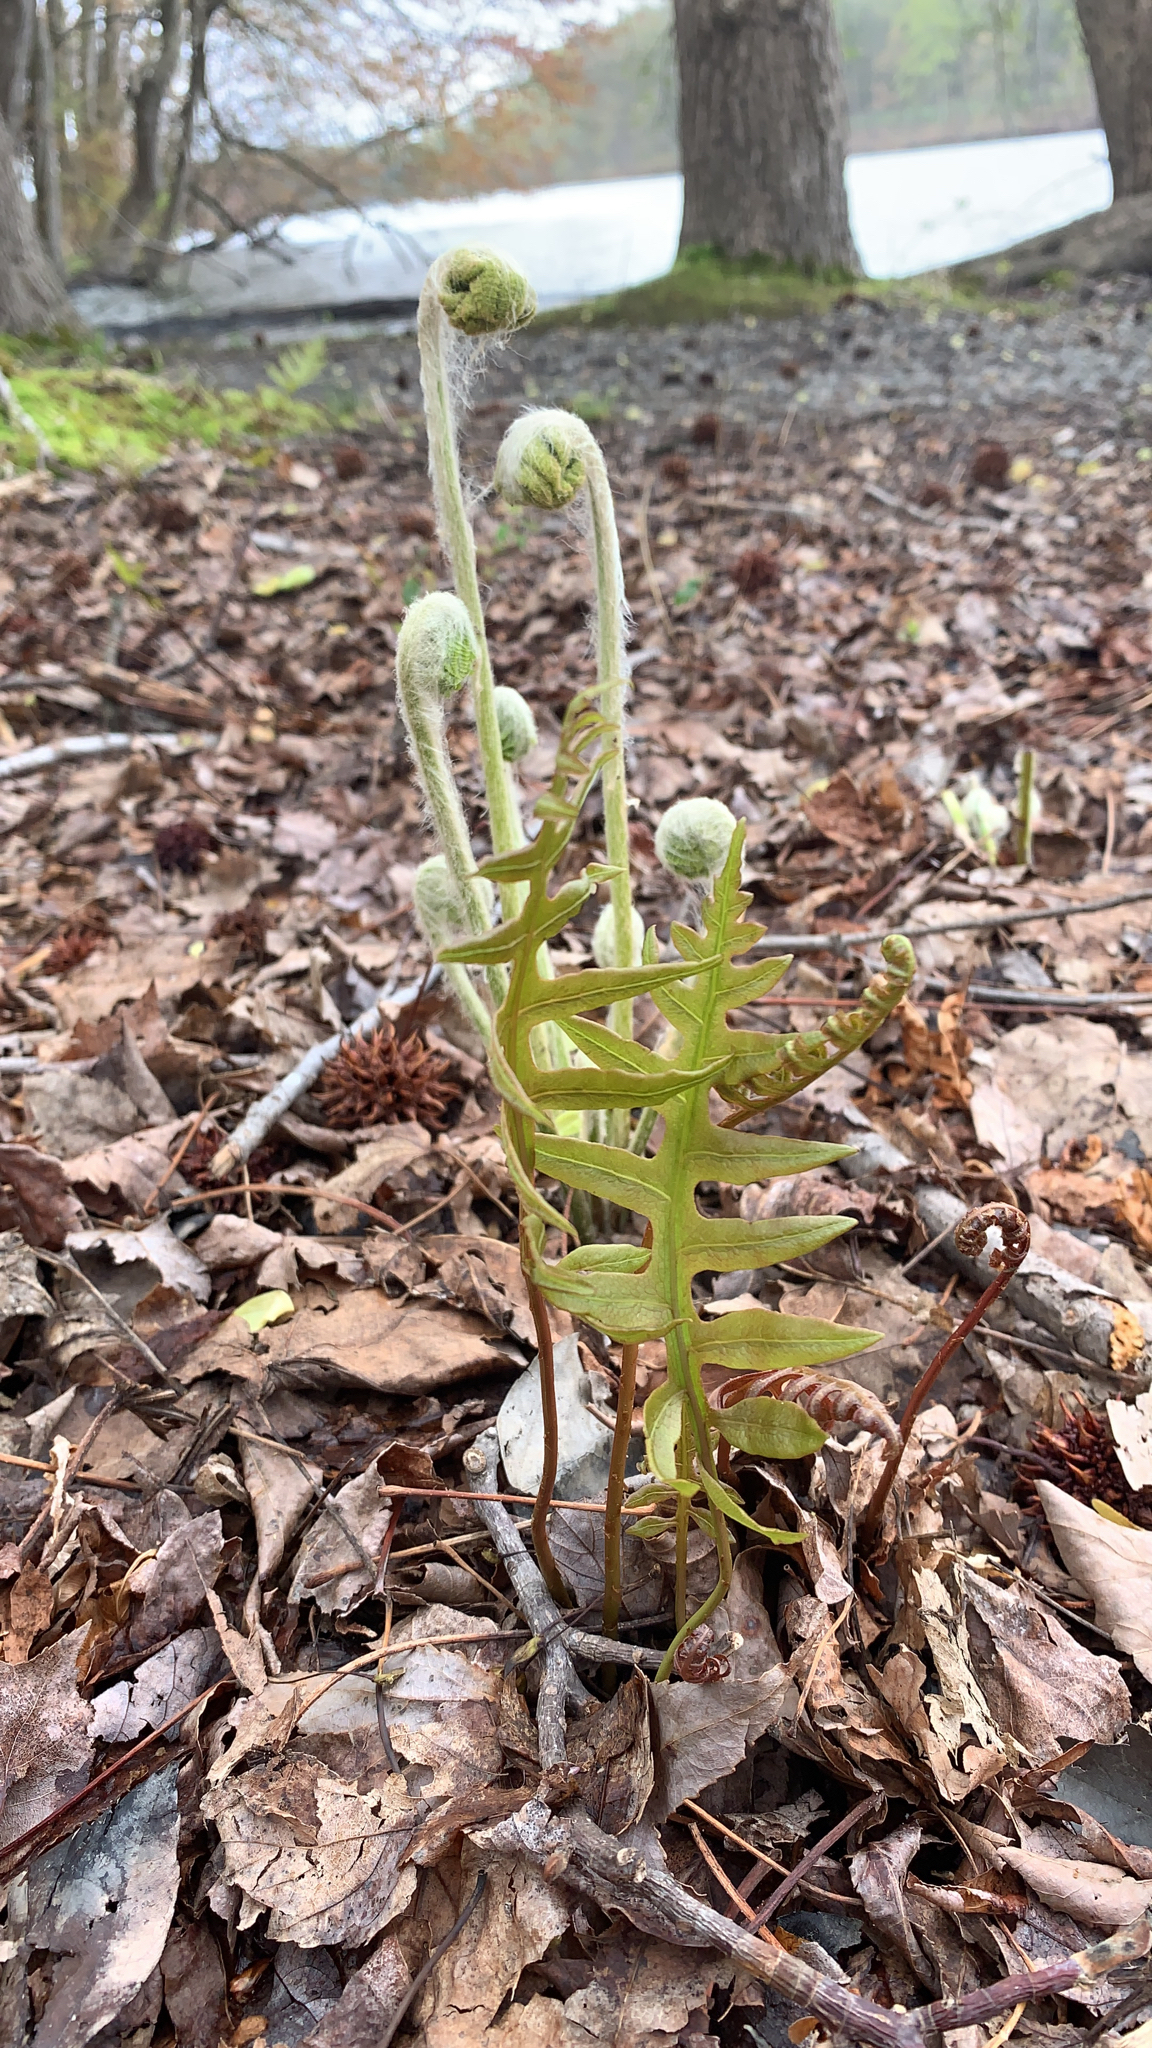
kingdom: Plantae
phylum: Tracheophyta
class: Polypodiopsida
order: Polypodiales
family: Blechnaceae
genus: Lorinseria
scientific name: Lorinseria areolata
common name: Dwarf chain fern
